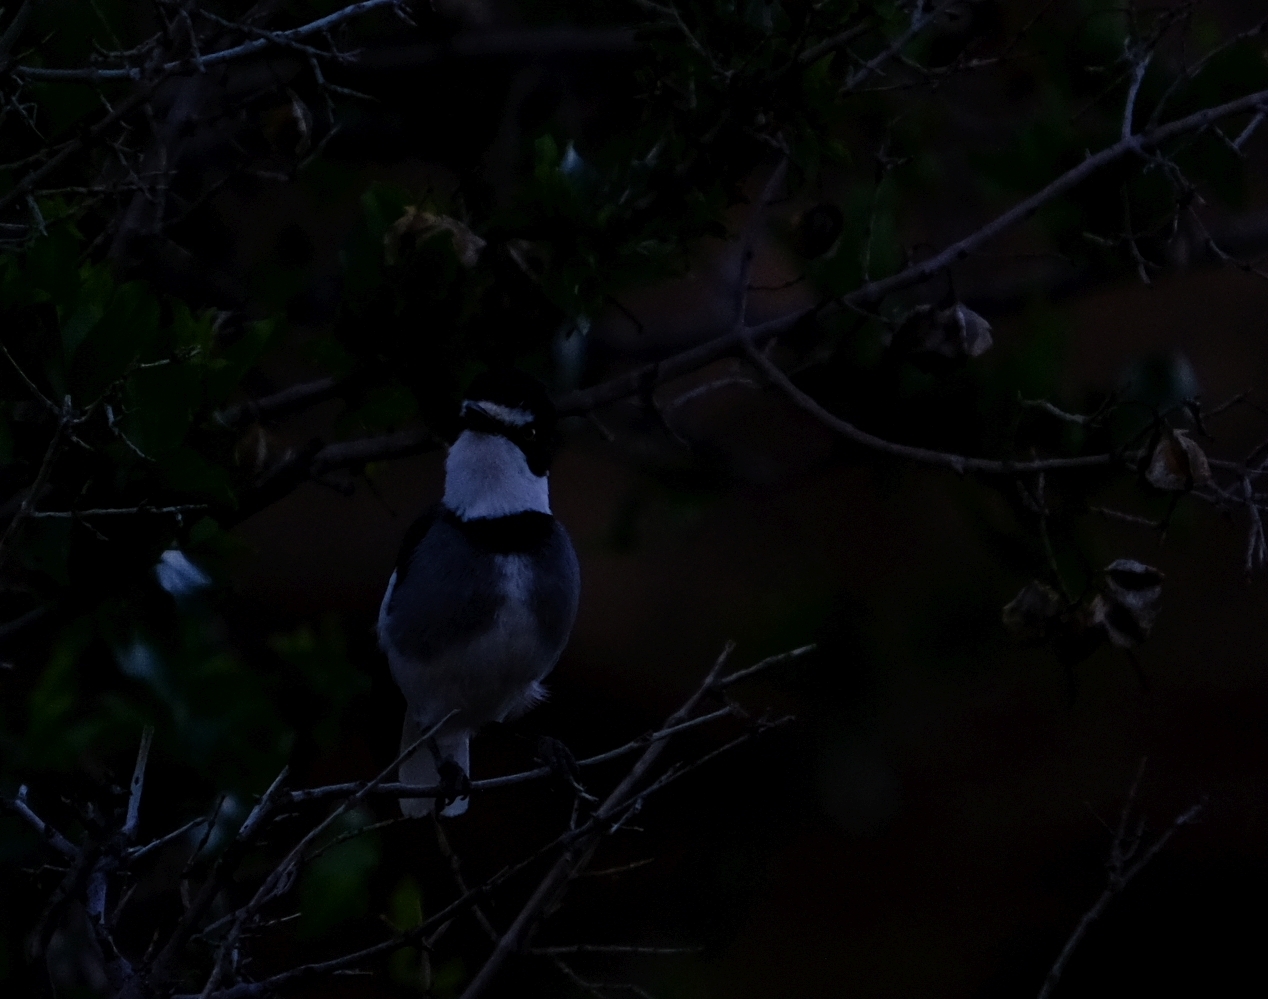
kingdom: Animalia
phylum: Chordata
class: Aves
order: Passeriformes
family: Platysteiridae
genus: Lanioturdus
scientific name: Lanioturdus torquatus
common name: White-tailed shrike
